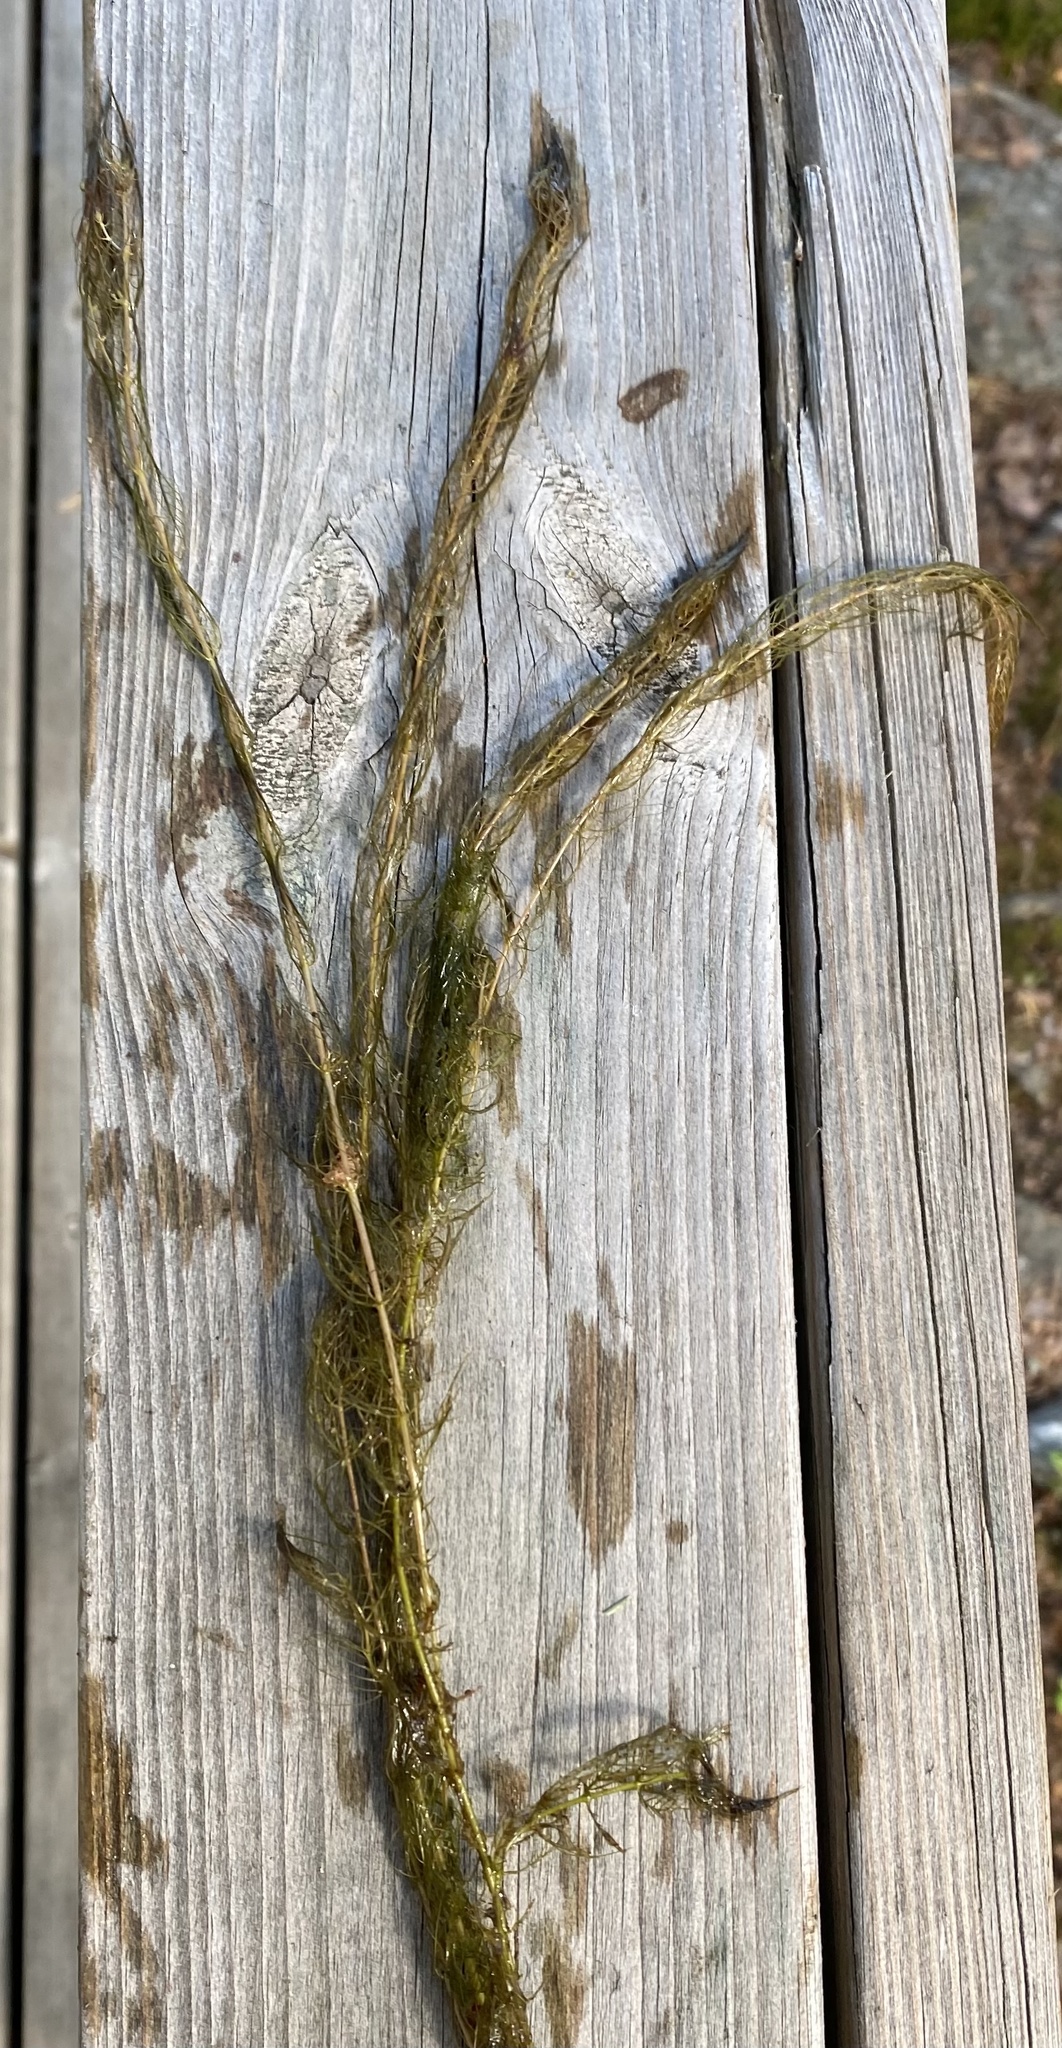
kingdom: Plantae
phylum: Tracheophyta
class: Magnoliopsida
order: Saxifragales
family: Haloragaceae
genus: Myriophyllum
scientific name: Myriophyllum alterniflorum
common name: Alternate water-milfoil
